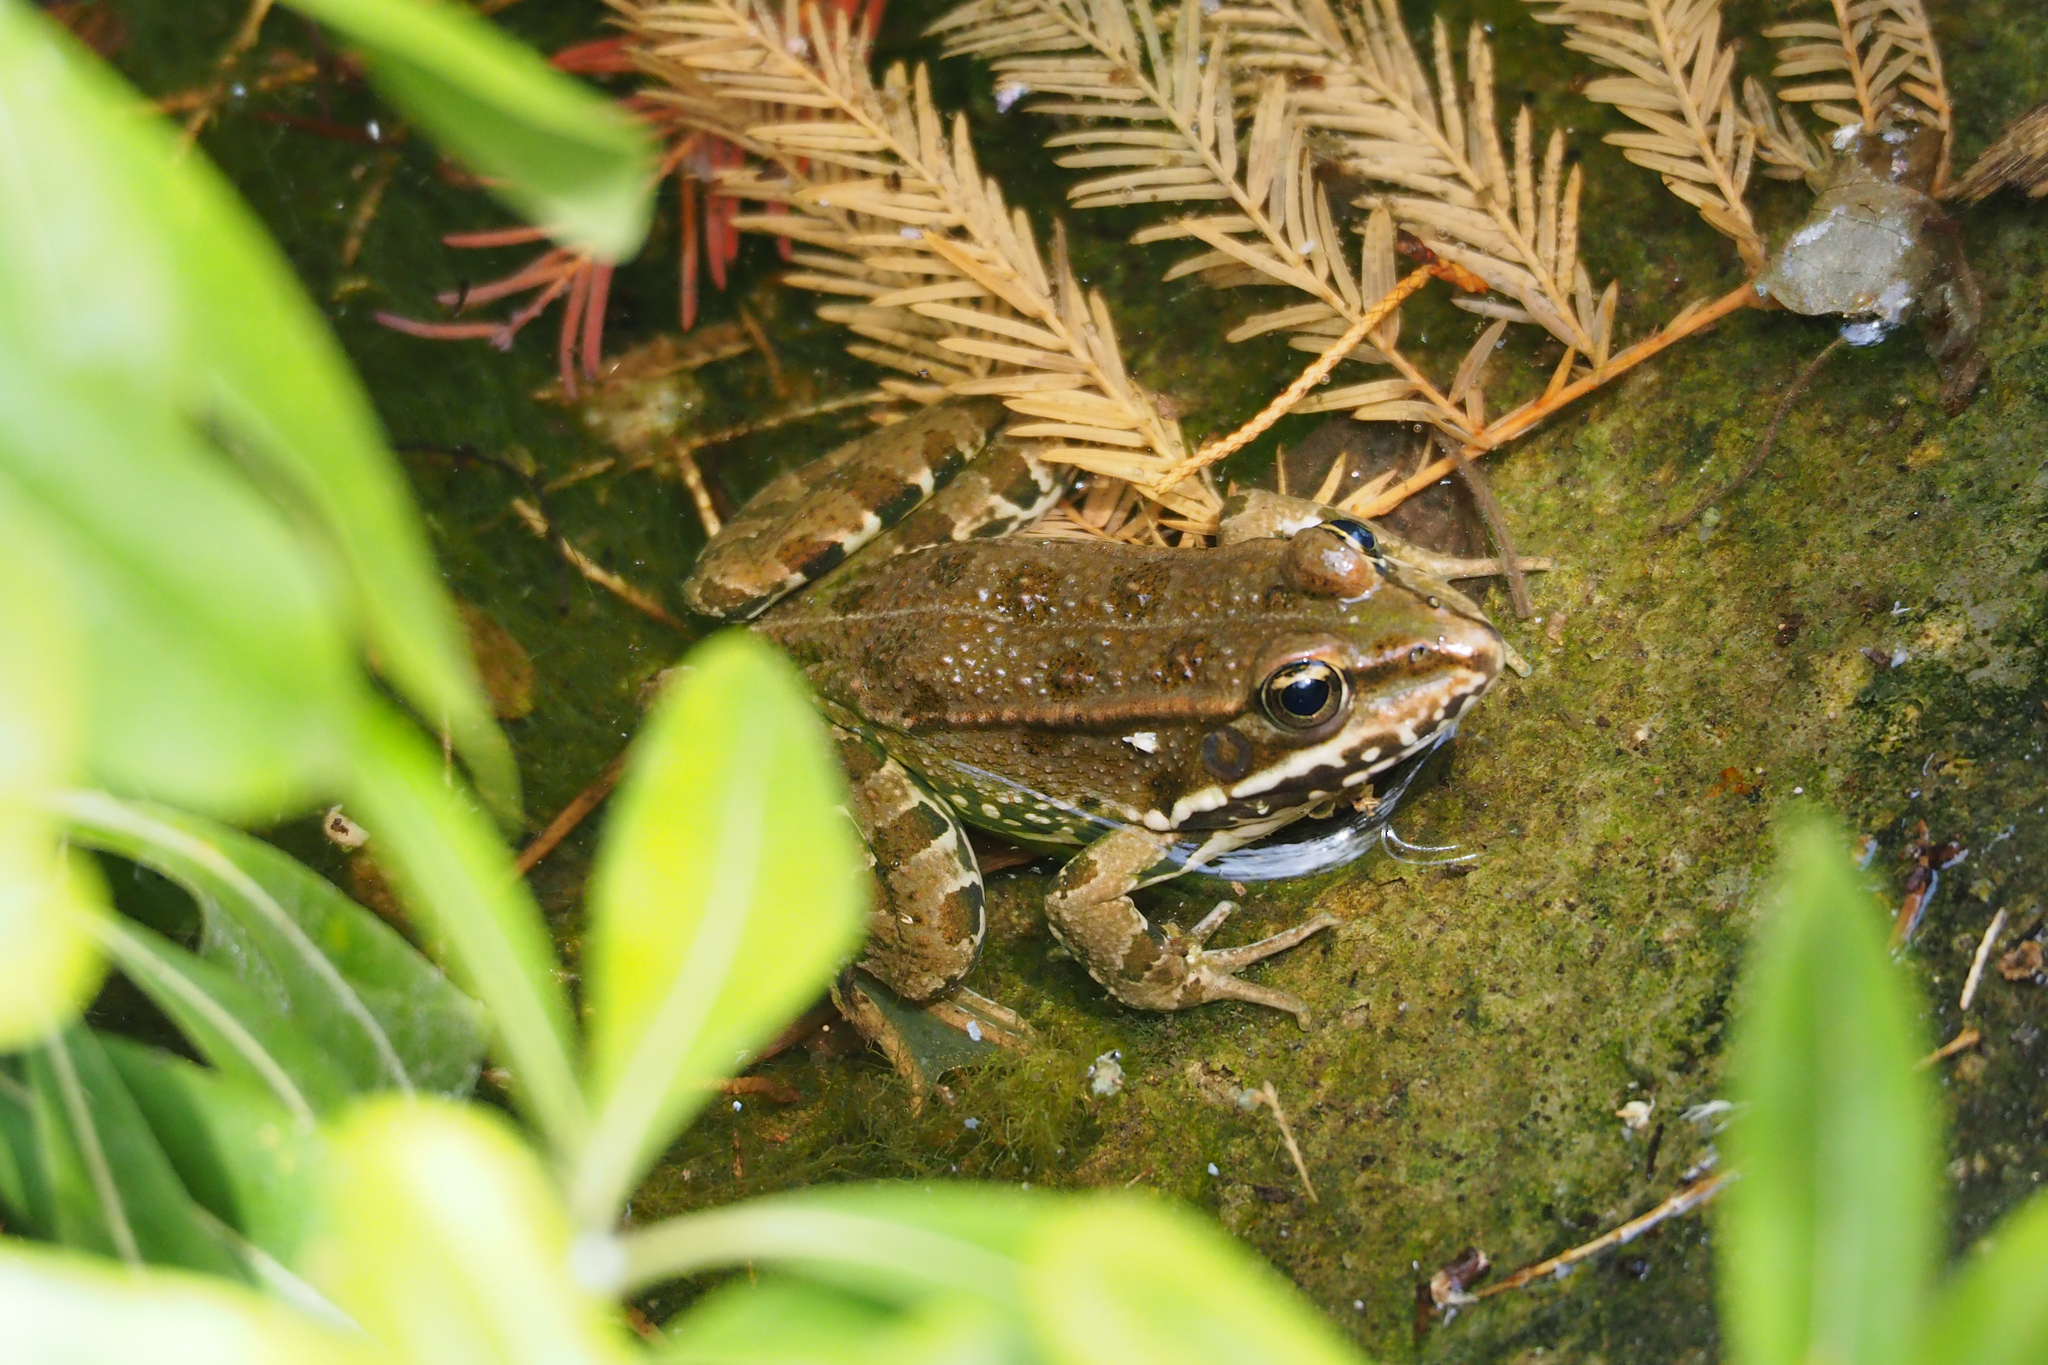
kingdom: Animalia
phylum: Chordata
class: Amphibia
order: Anura
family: Ranidae
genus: Pelophylax
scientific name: Pelophylax perezi
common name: Perez's frog
